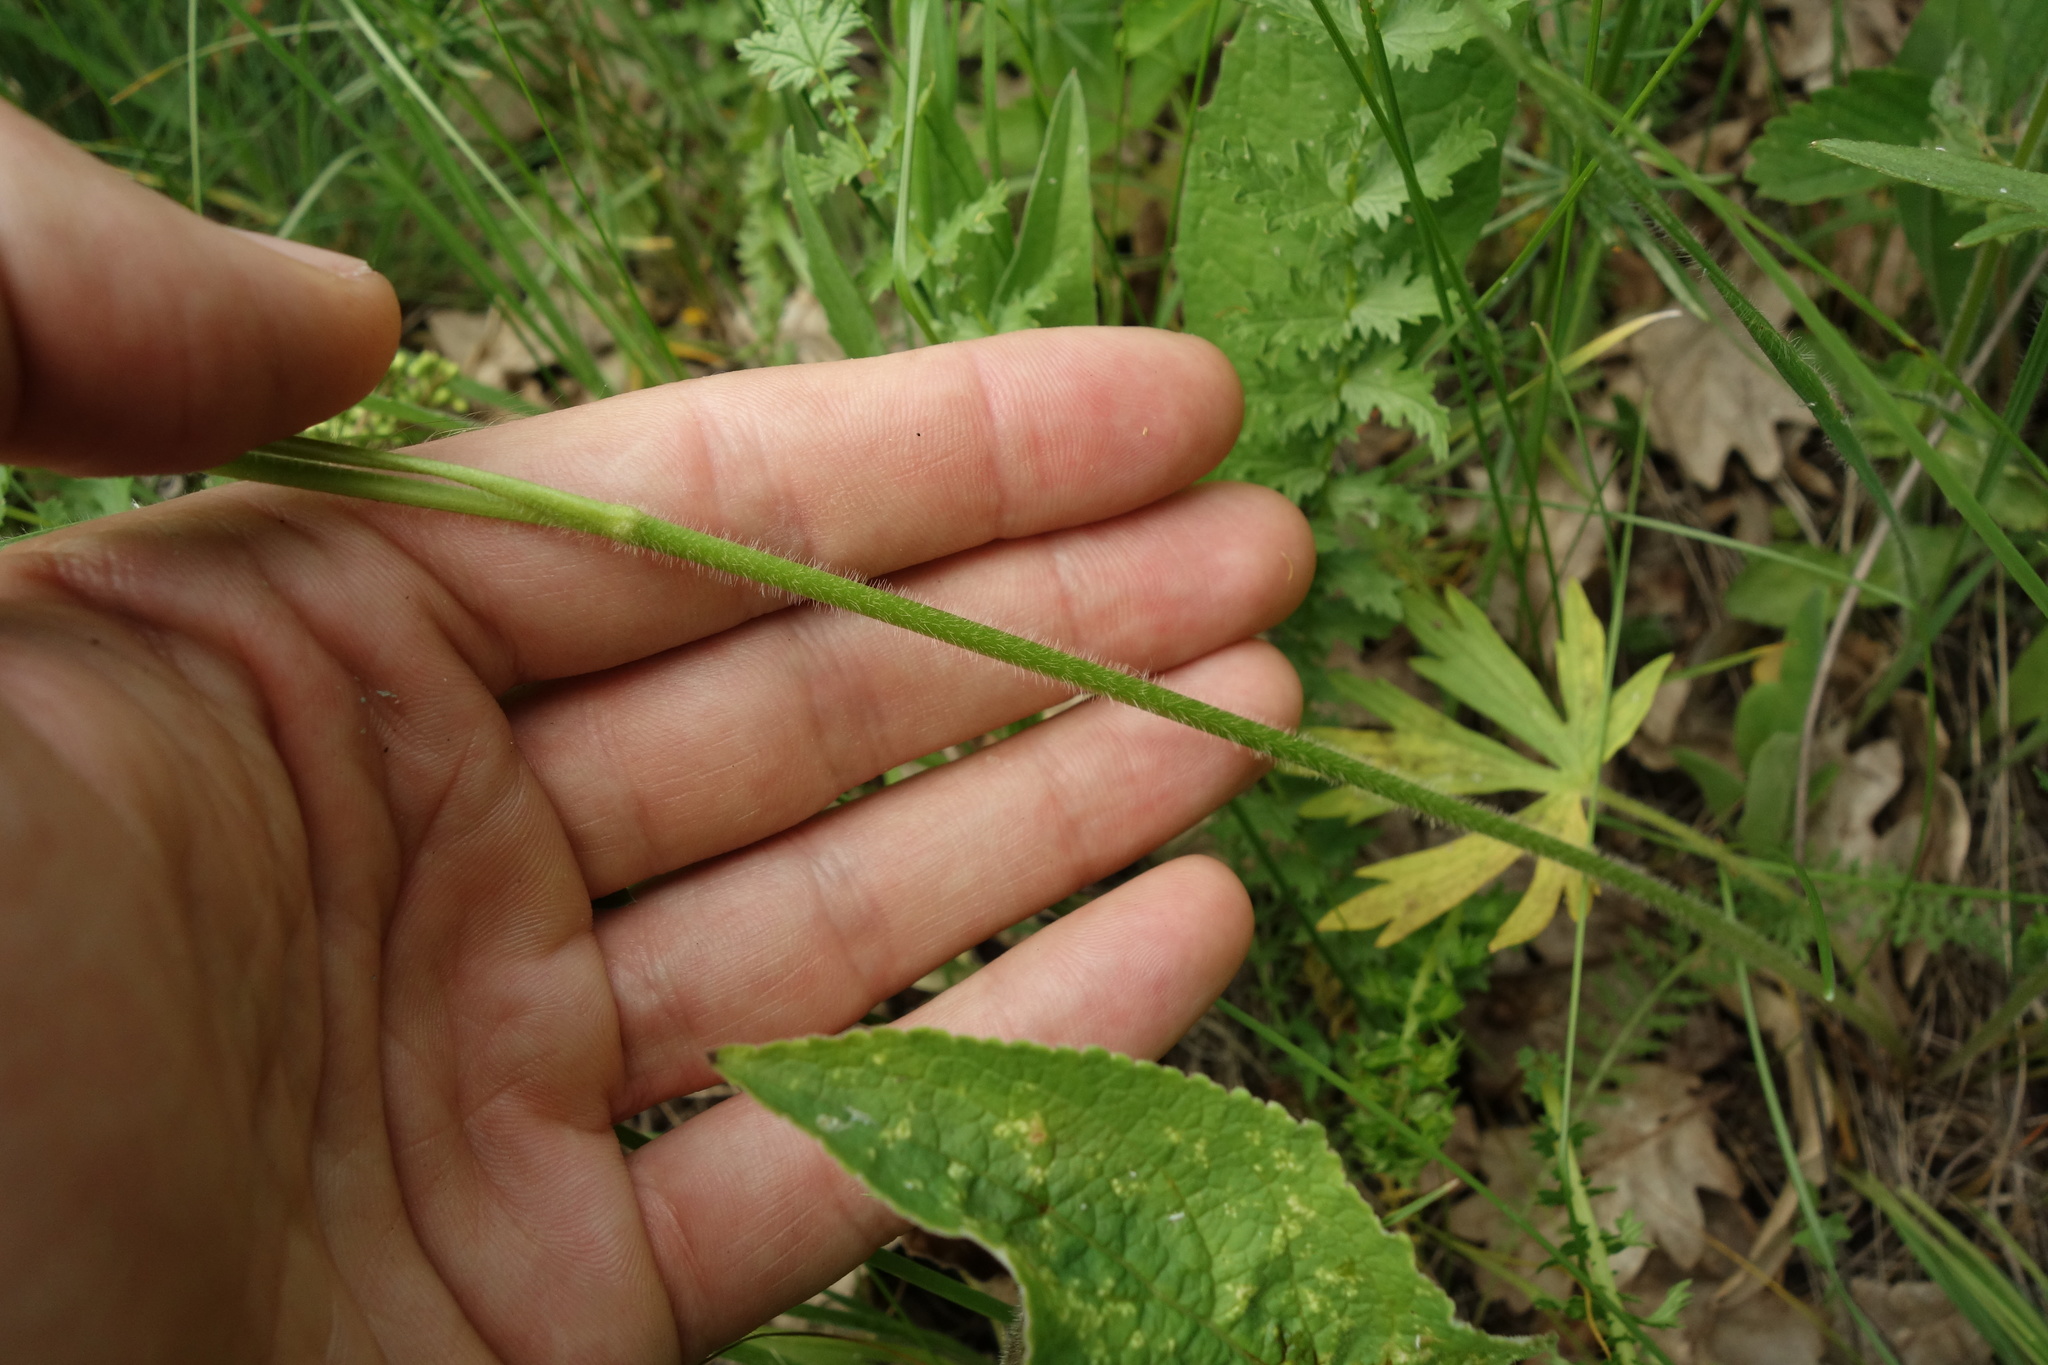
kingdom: Plantae
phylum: Tracheophyta
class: Magnoliopsida
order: Ranunculales
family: Ranunculaceae
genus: Ranunculus
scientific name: Ranunculus polyanthemos
